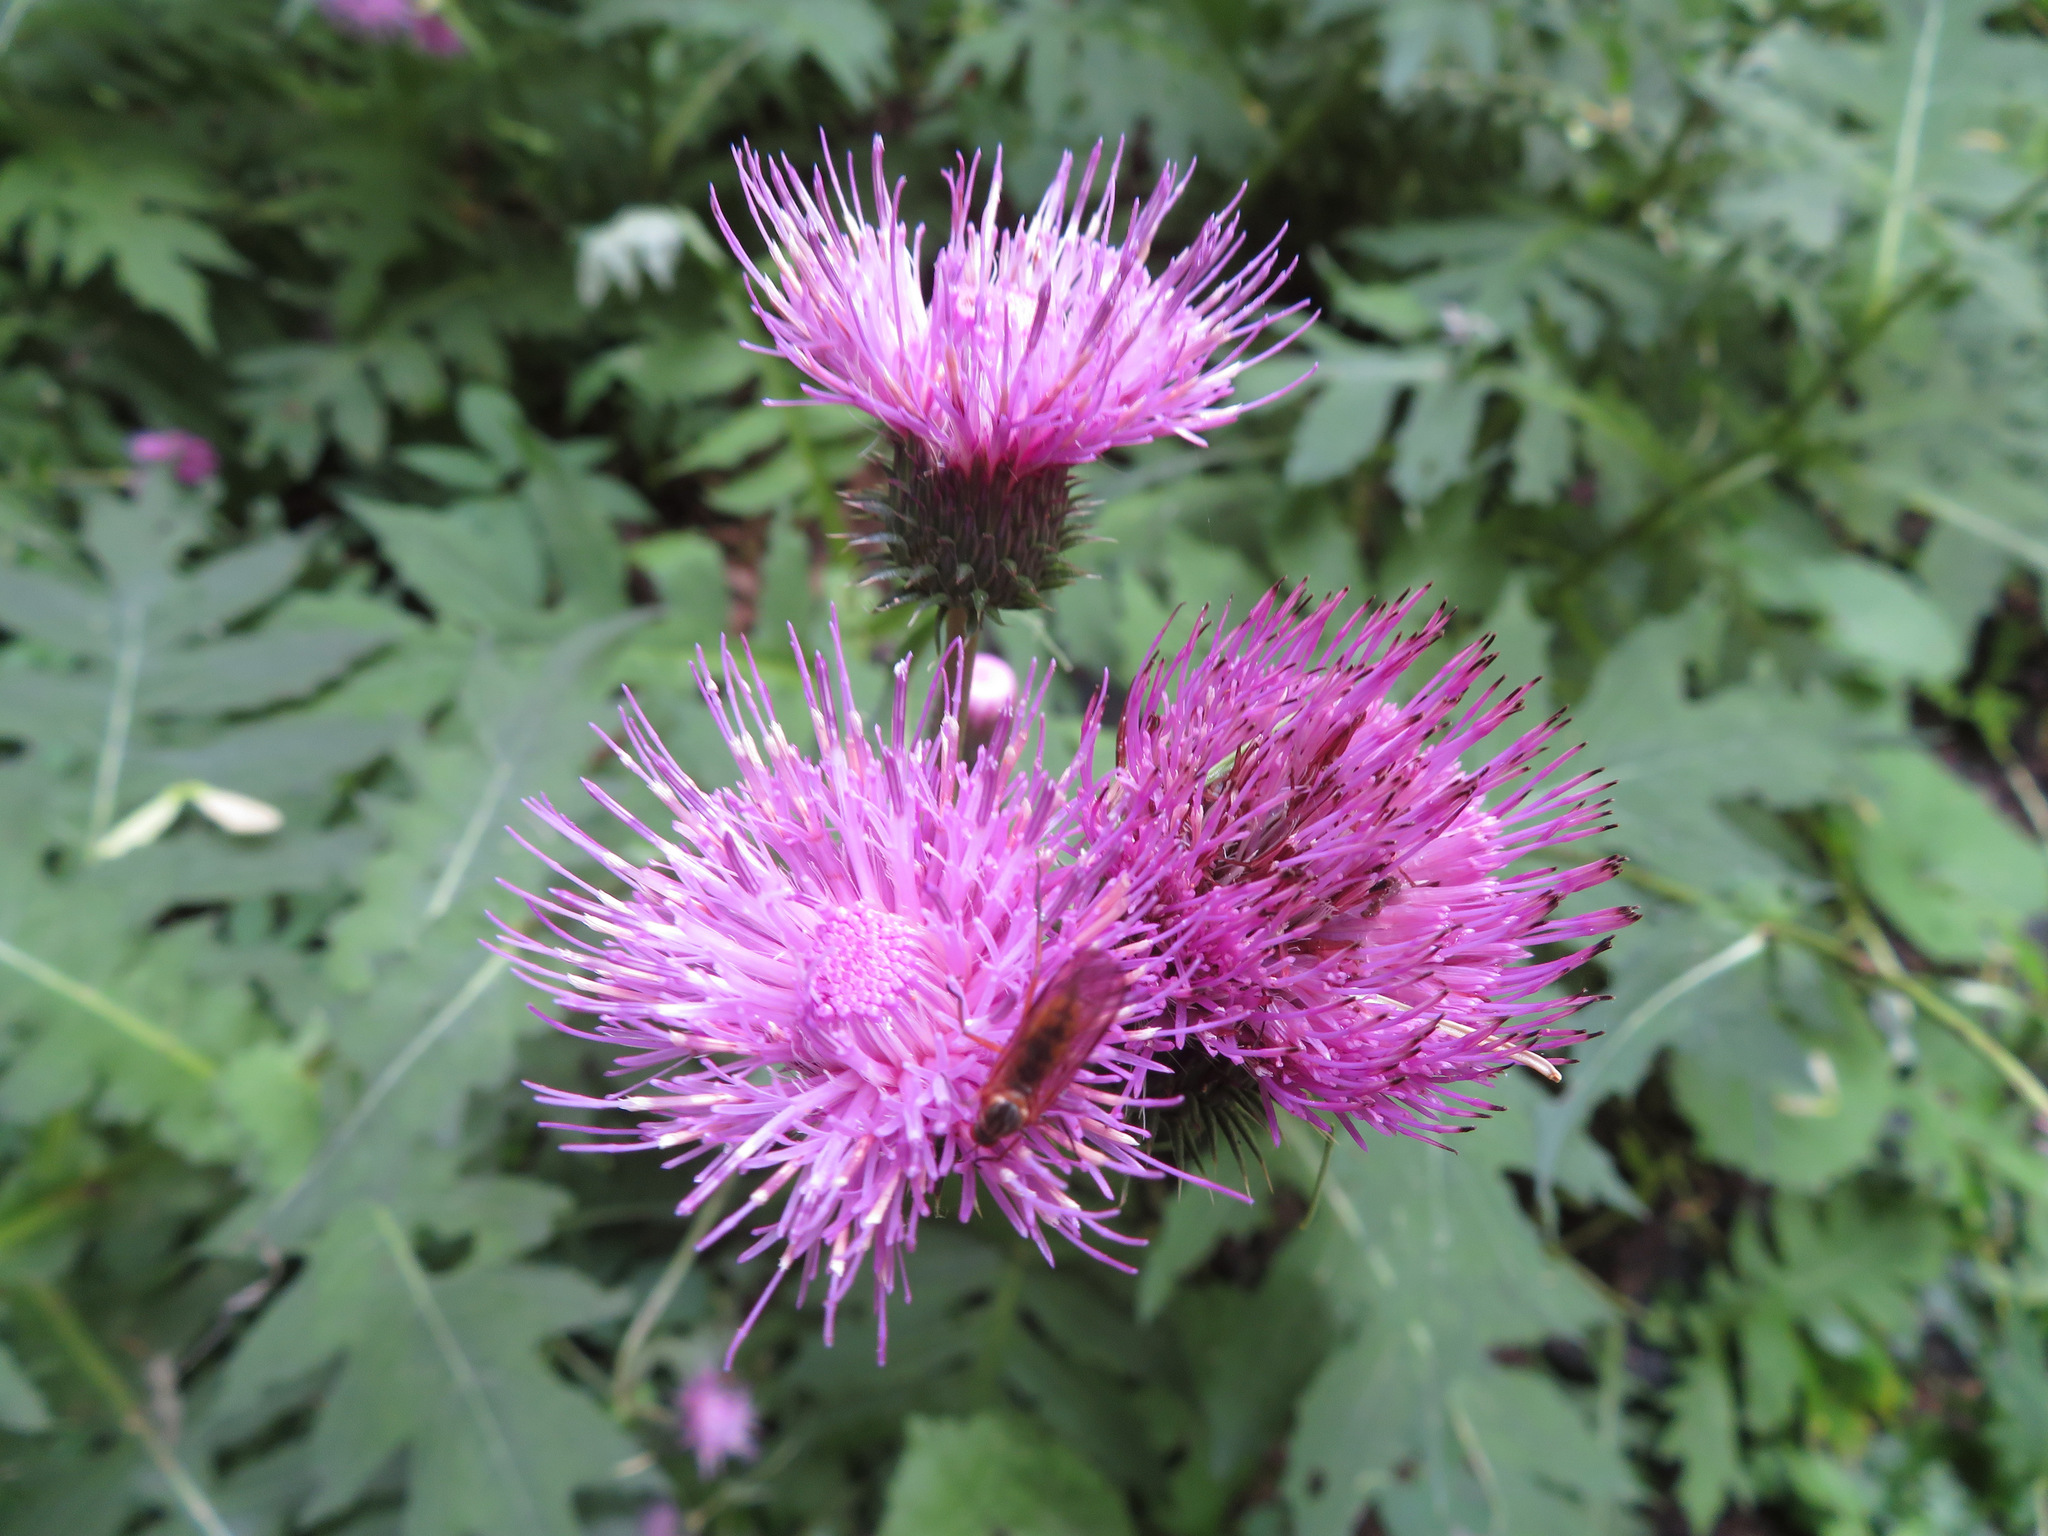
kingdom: Plantae
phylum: Tracheophyta
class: Magnoliopsida
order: Asterales
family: Asteraceae
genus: Cirsium
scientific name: Cirsium alsophilum
